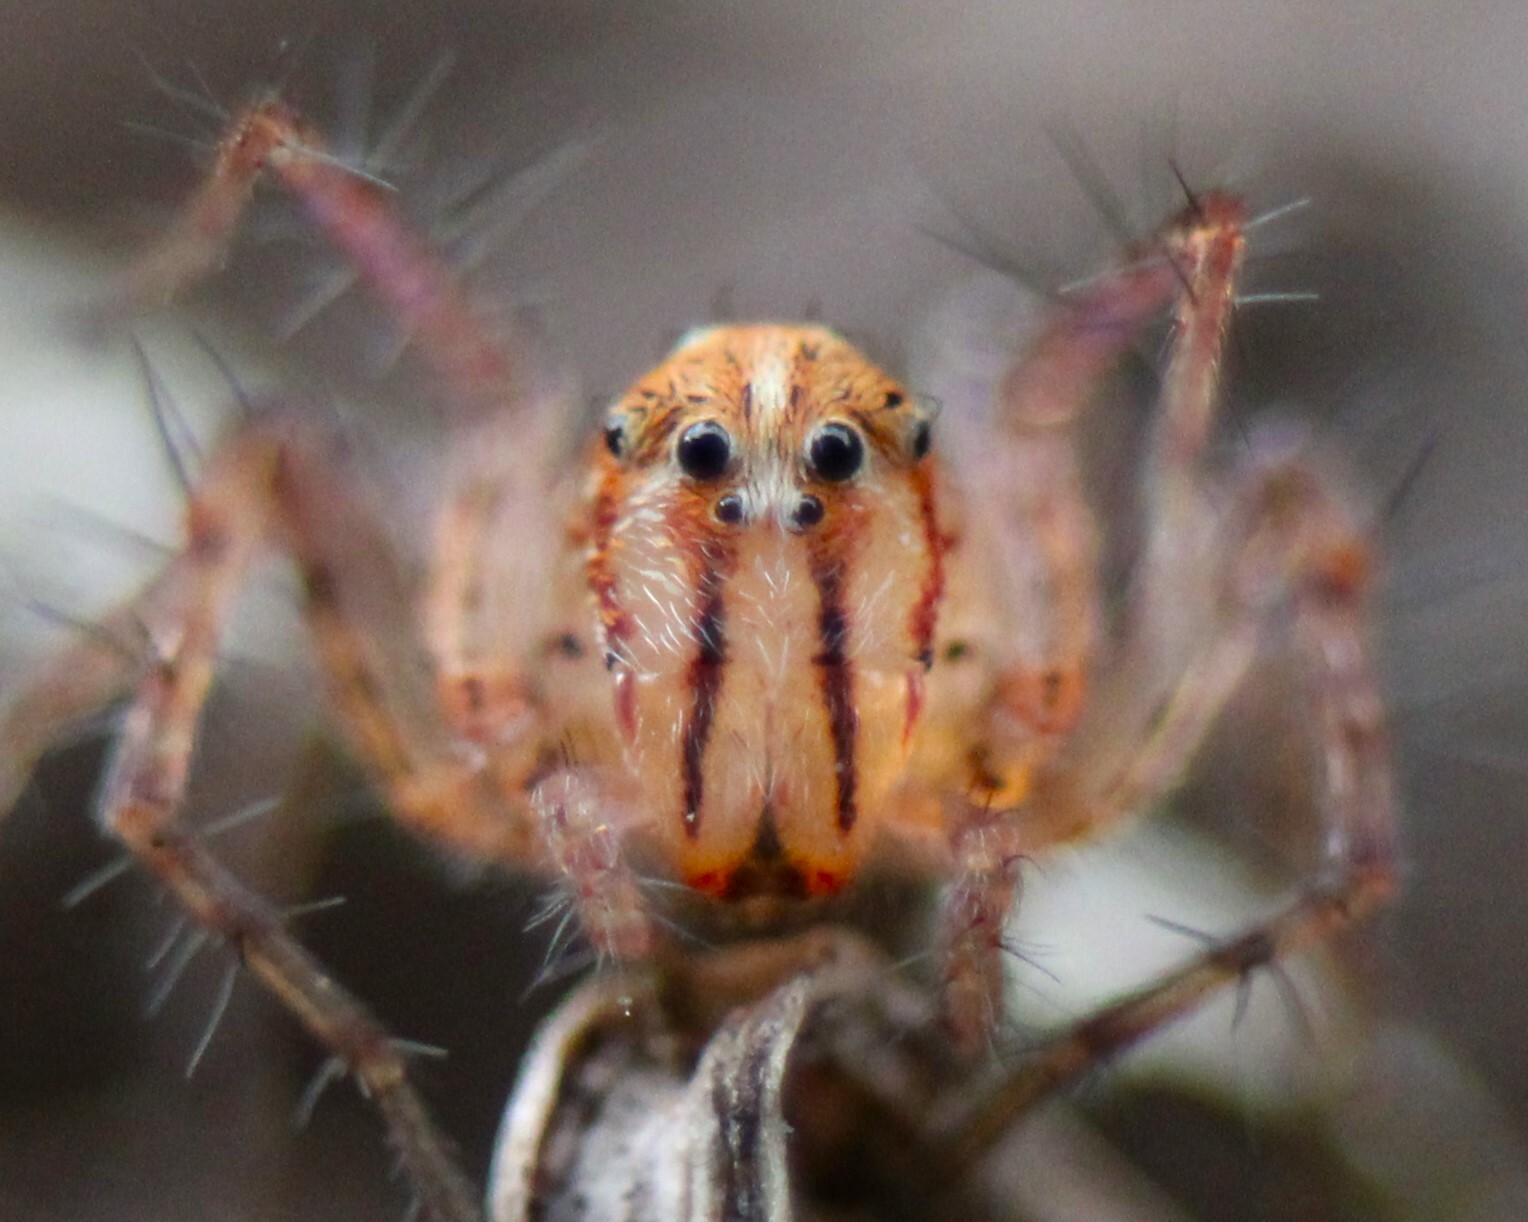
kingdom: Animalia
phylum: Arthropoda
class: Arachnida
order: Araneae
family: Oxyopidae
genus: Oxyopes
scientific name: Oxyopes aglossus
